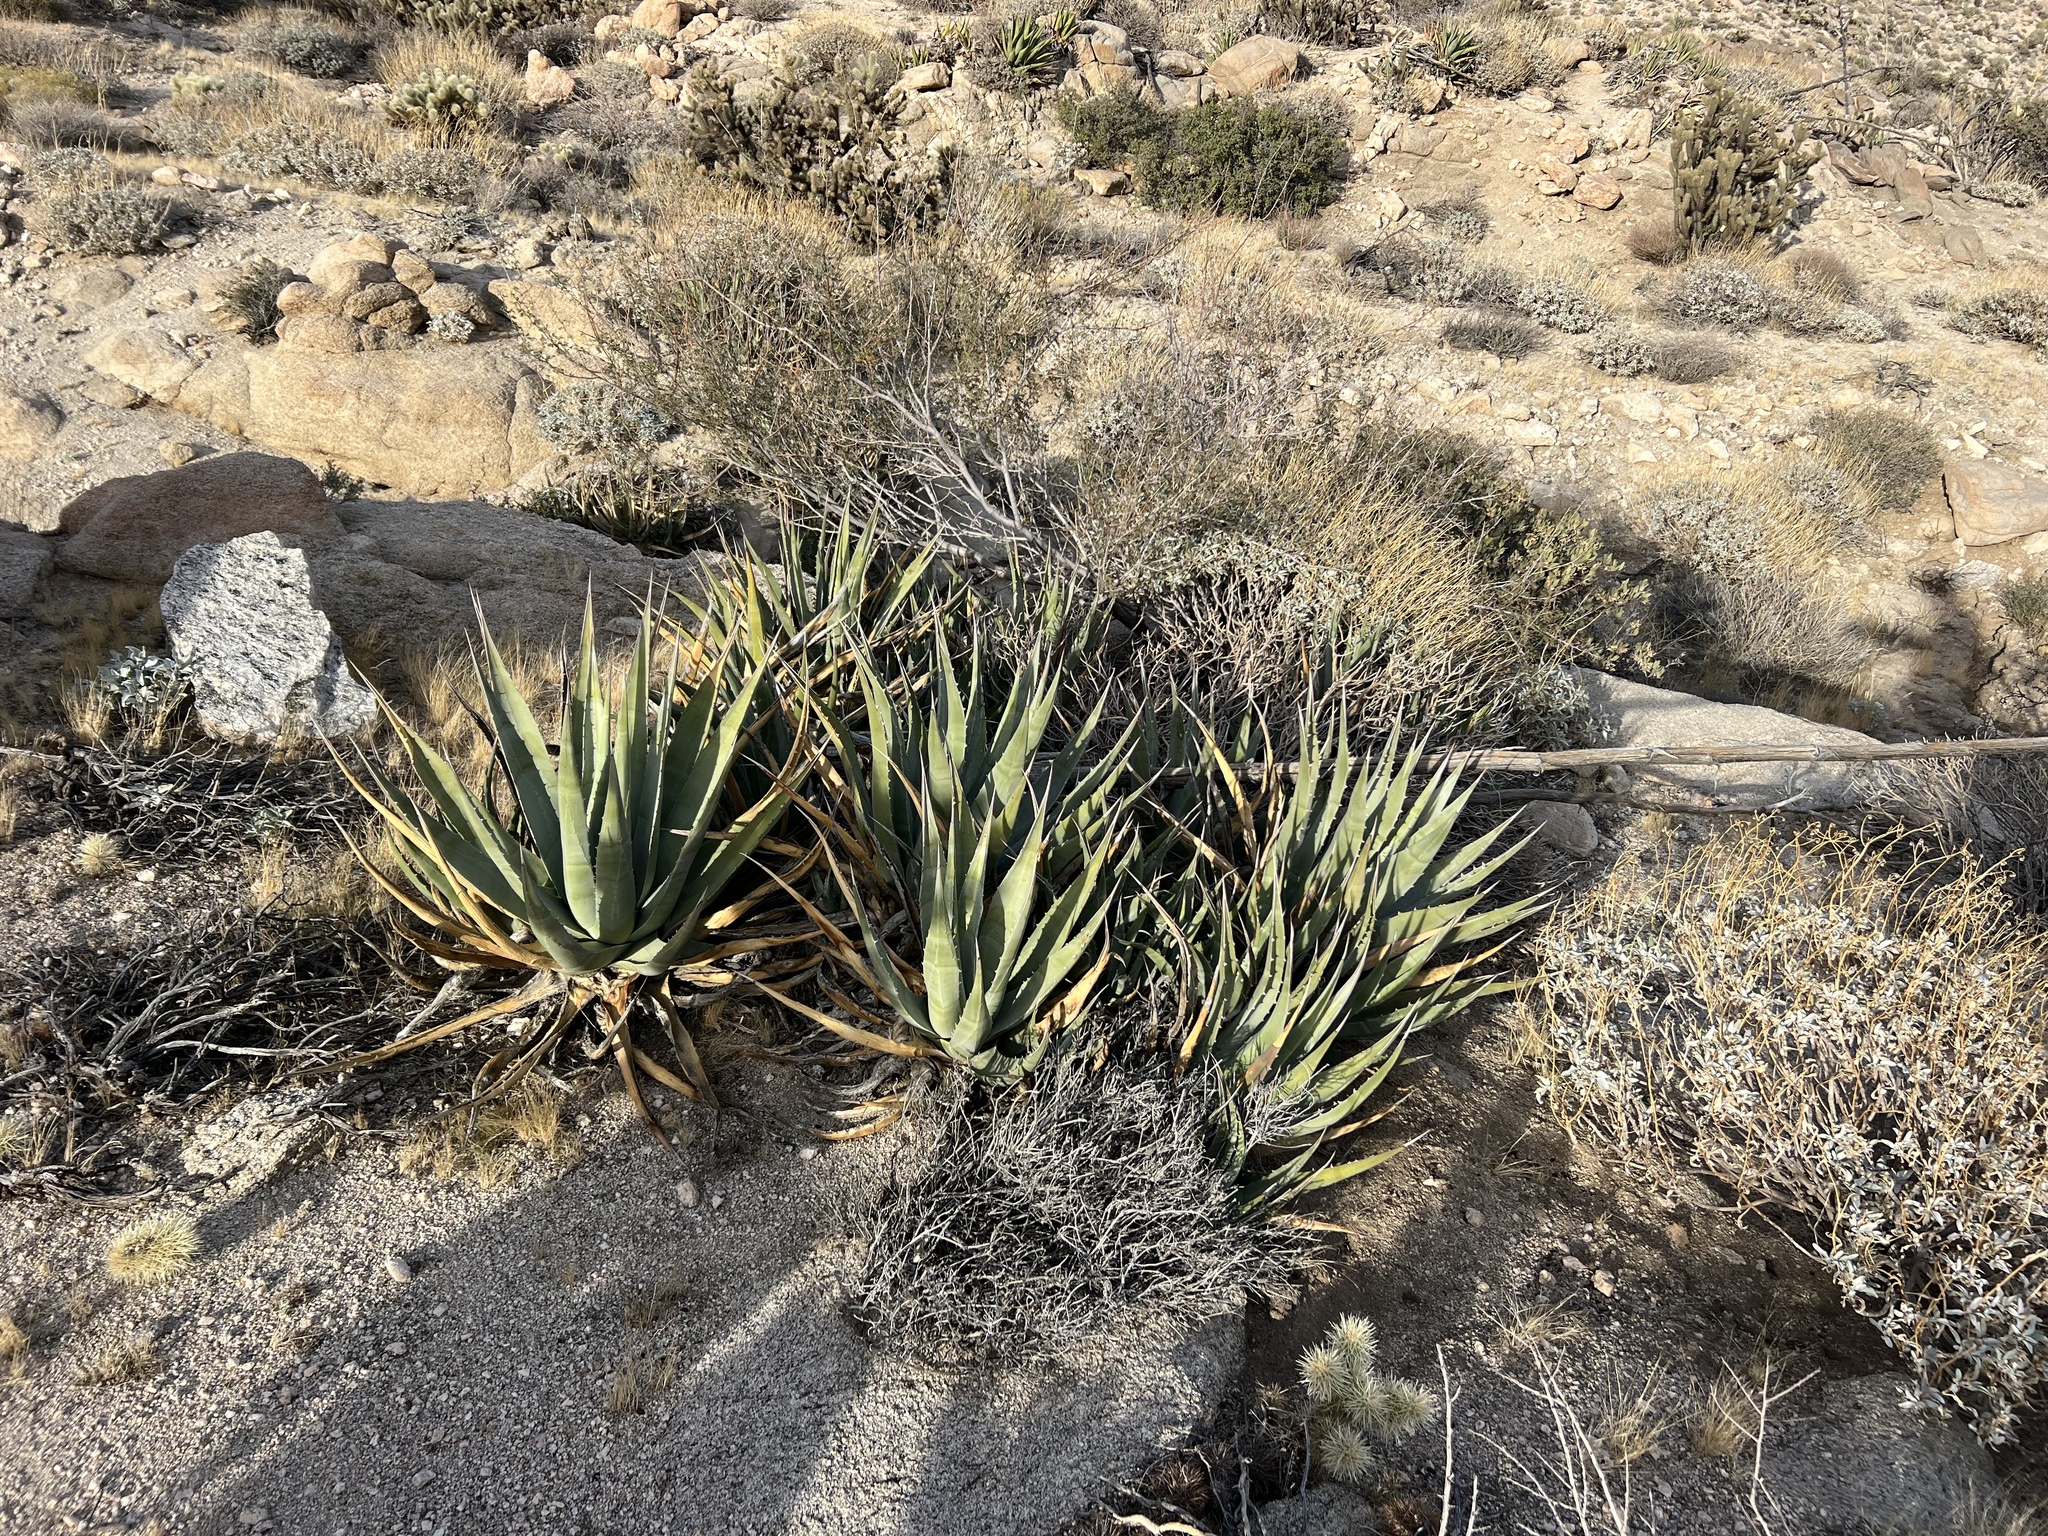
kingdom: Plantae
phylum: Tracheophyta
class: Liliopsida
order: Asparagales
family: Asparagaceae
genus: Agave
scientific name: Agave deserti
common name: Desert agave
